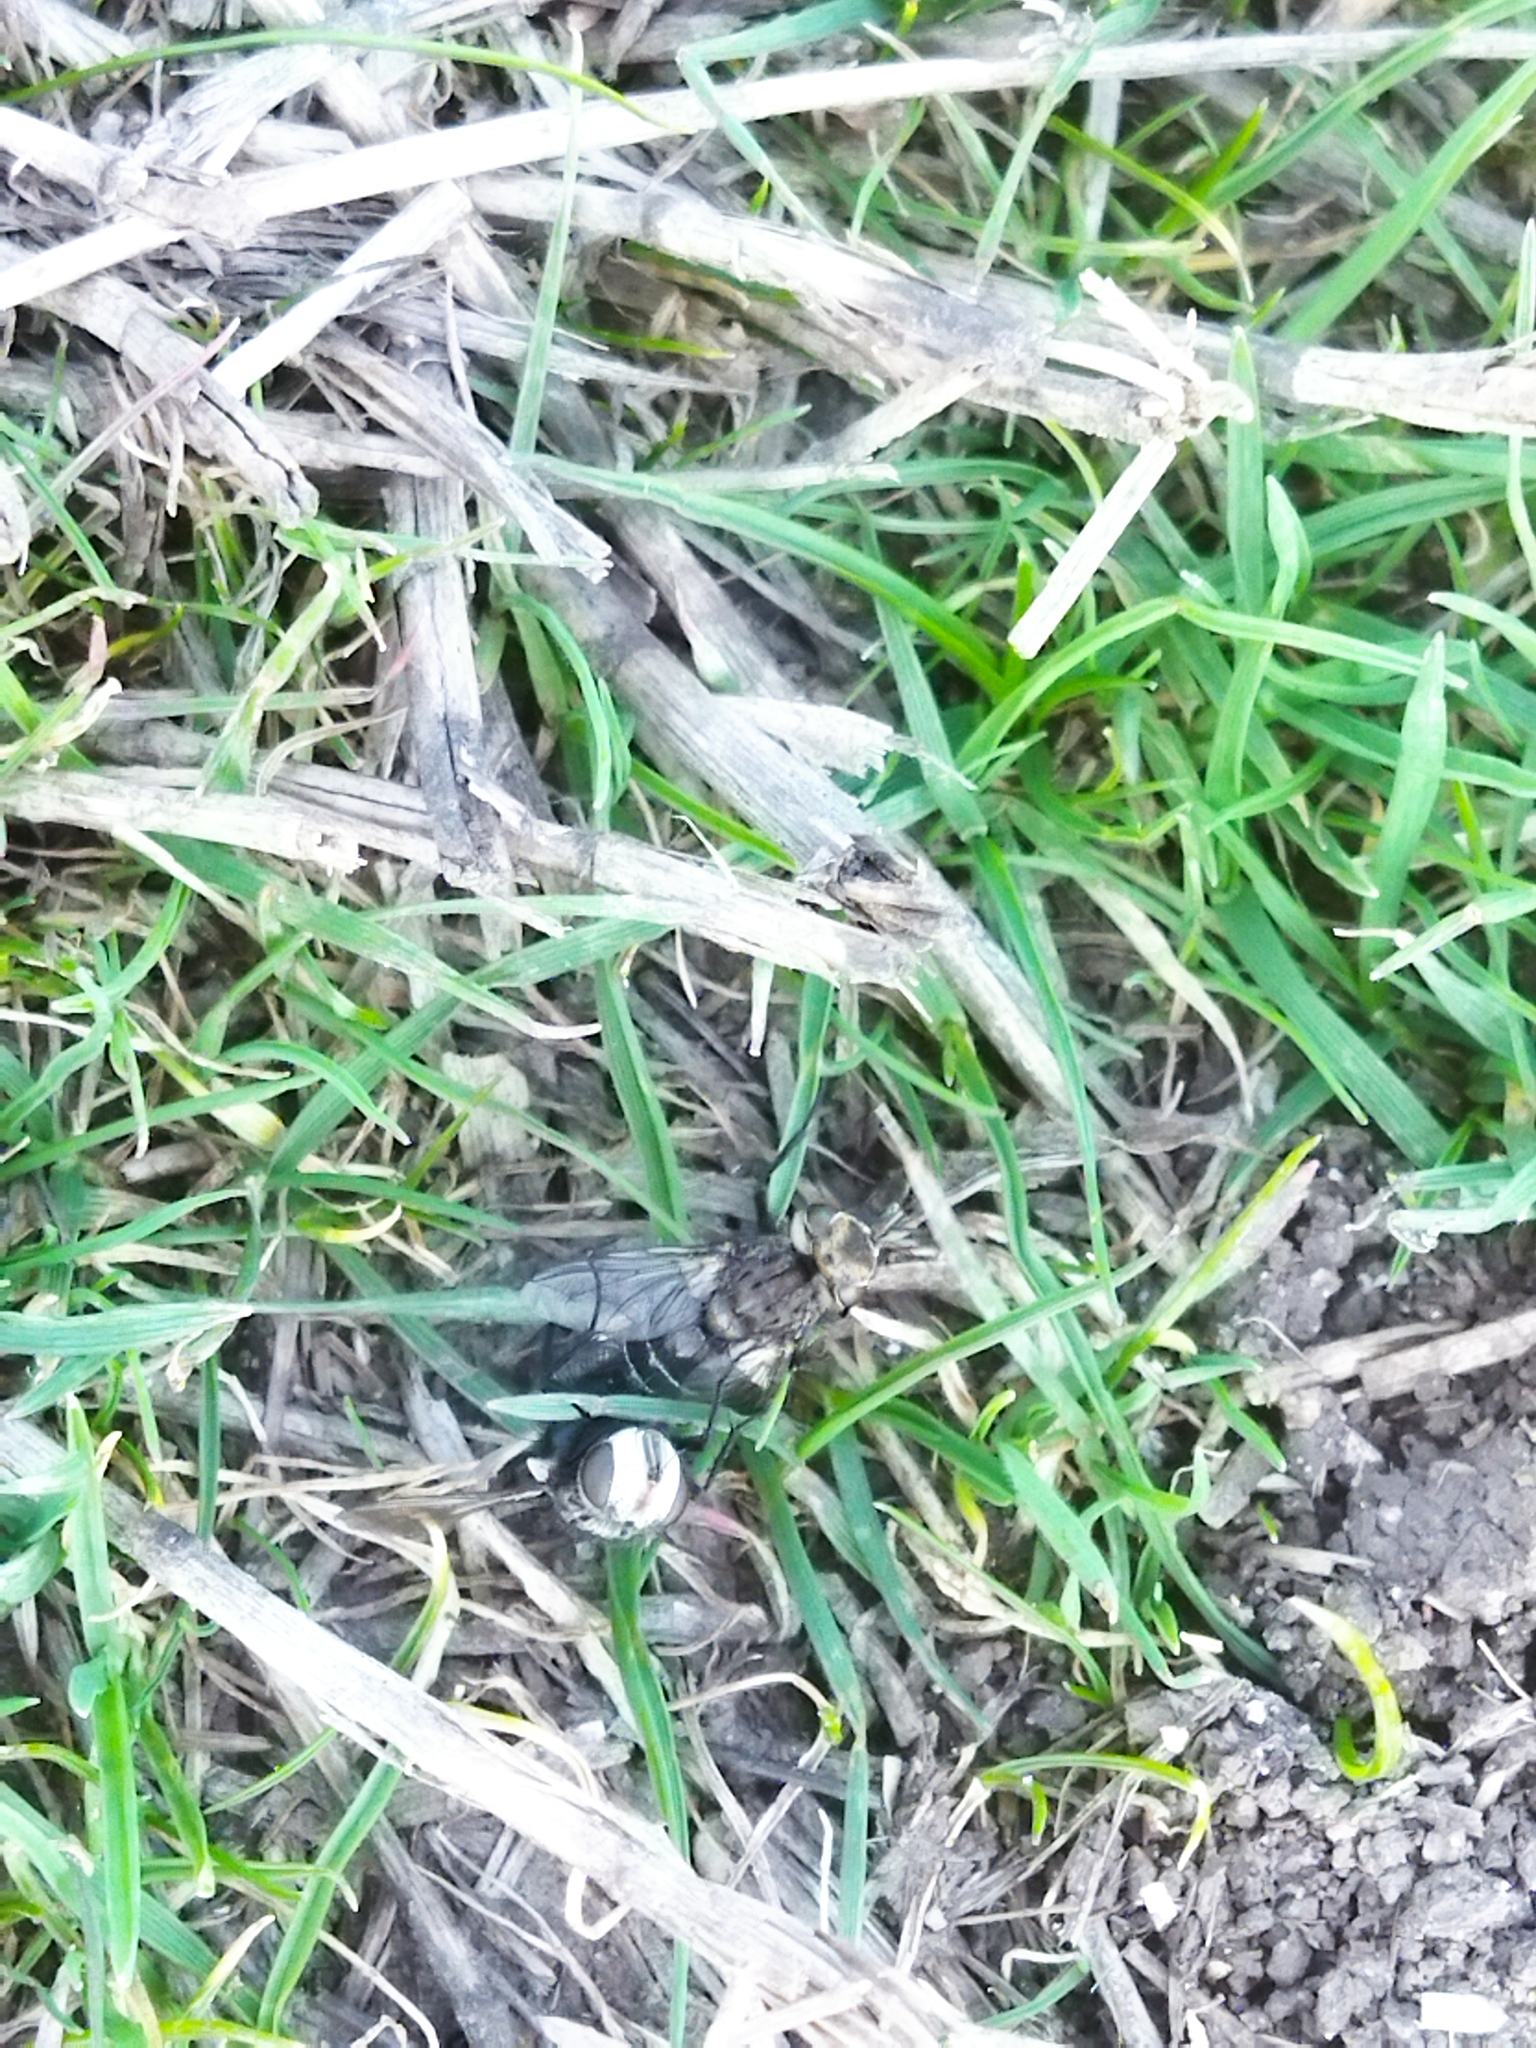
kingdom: Animalia
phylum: Arthropoda
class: Insecta
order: Diptera
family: Tachinidae
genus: Gonia
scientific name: Gonia picea
